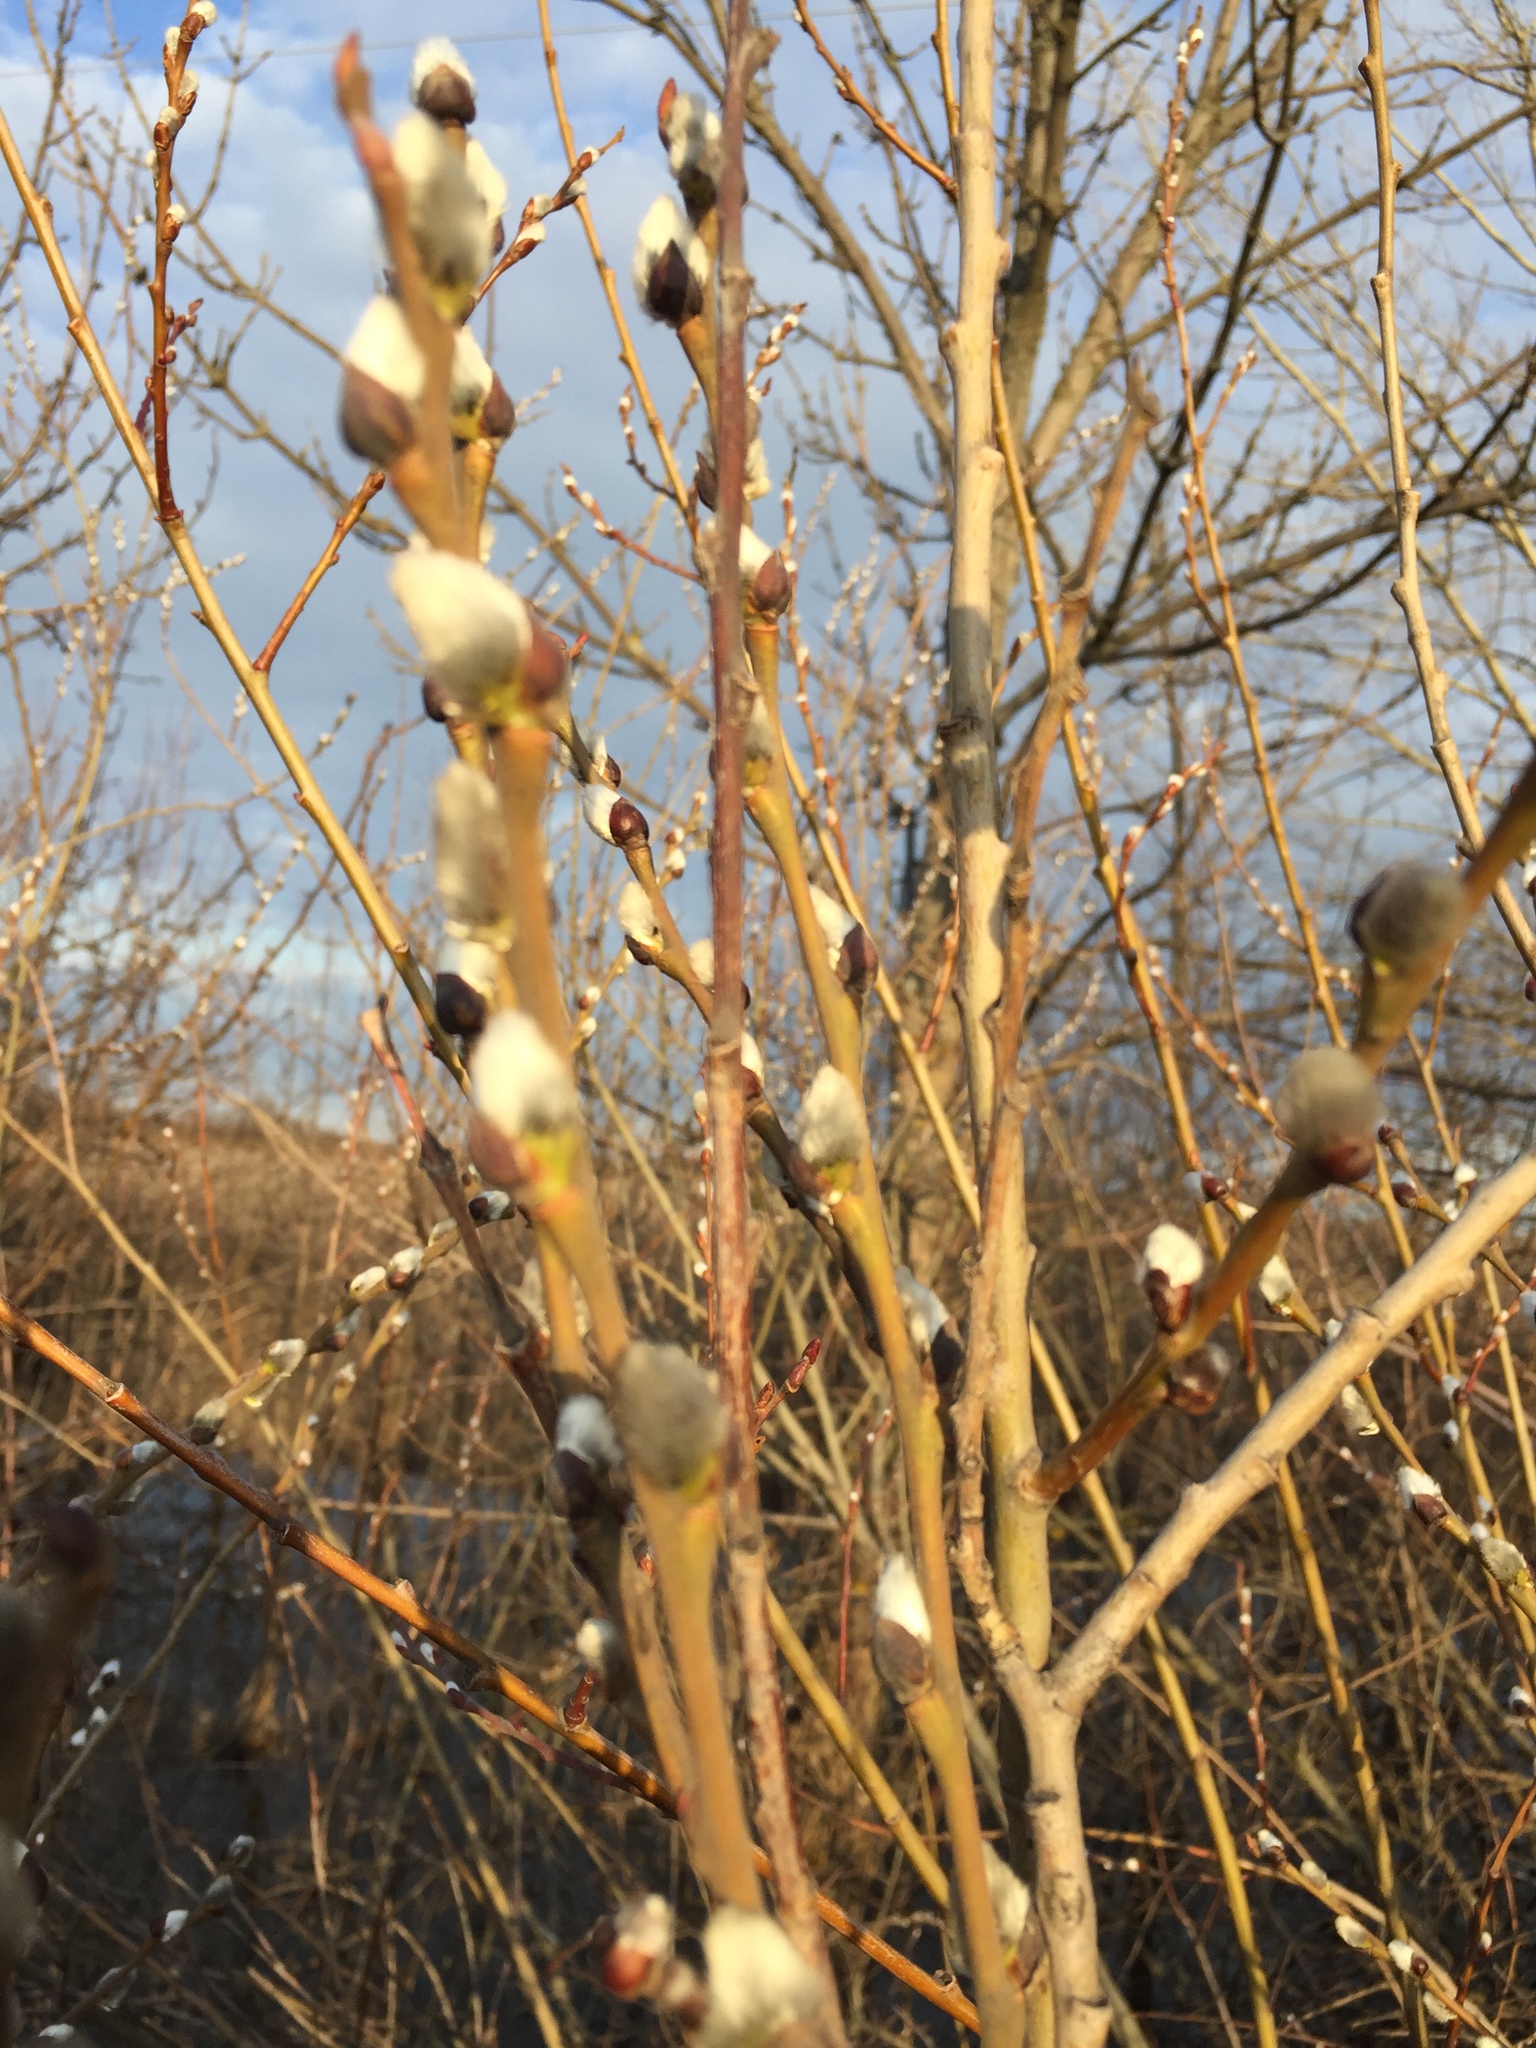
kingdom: Plantae
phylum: Tracheophyta
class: Magnoliopsida
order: Malpighiales
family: Salicaceae
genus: Salix
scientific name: Salix cinerea
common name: Common sallow
